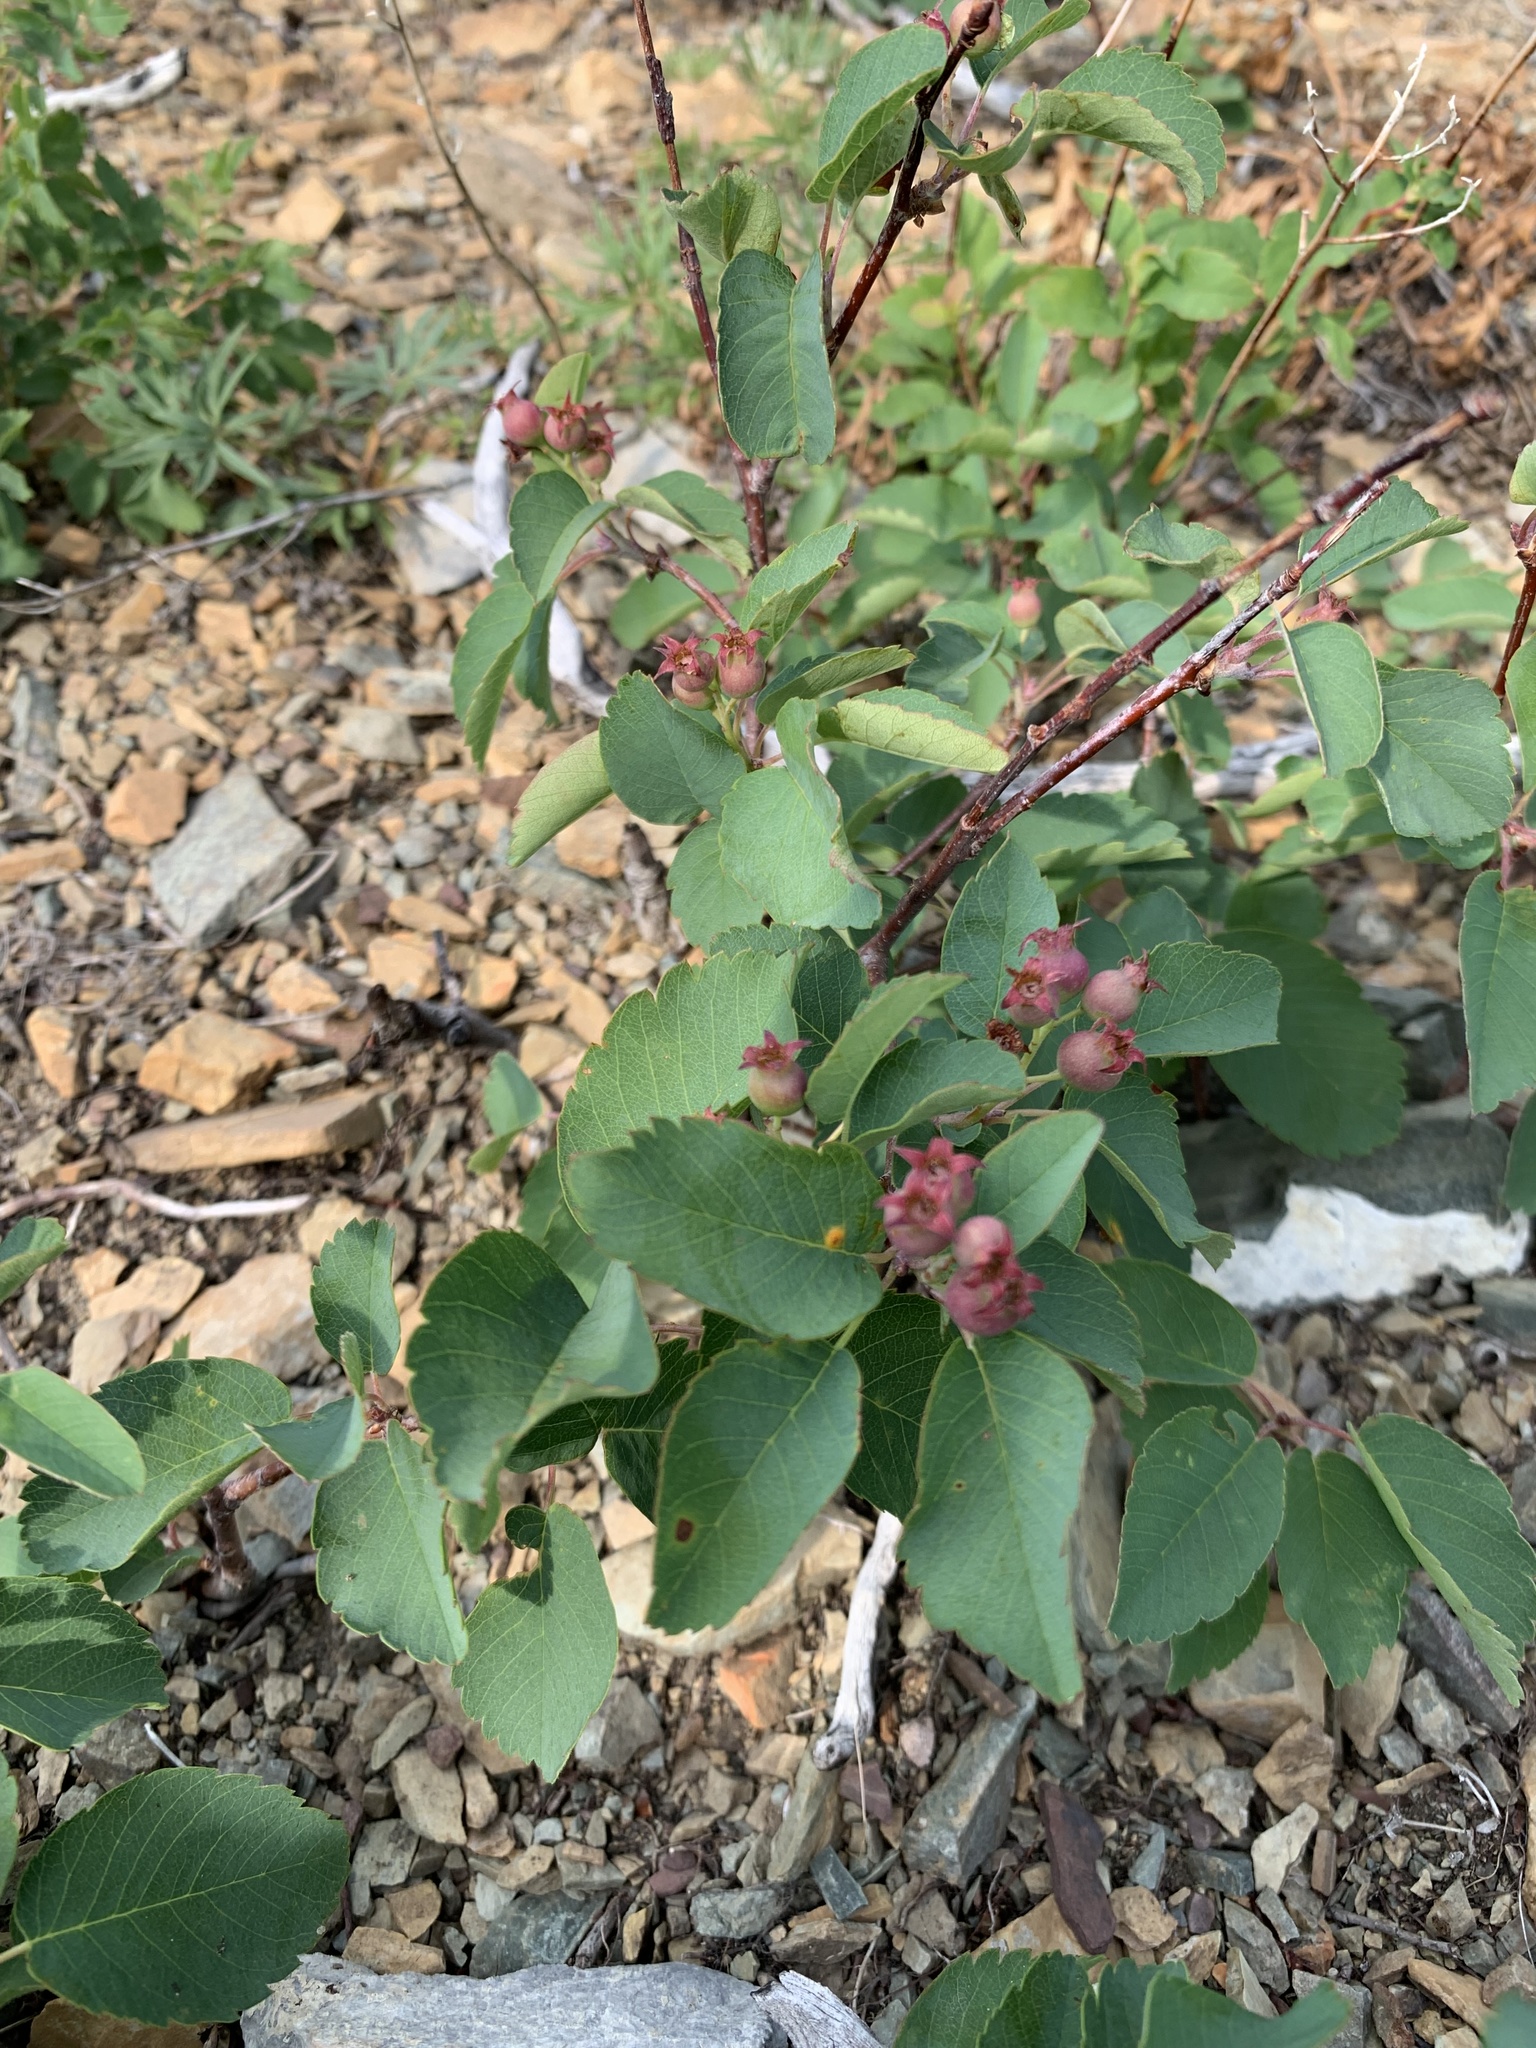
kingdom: Plantae
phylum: Tracheophyta
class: Magnoliopsida
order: Rosales
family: Rosaceae
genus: Amelanchier
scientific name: Amelanchier alnifolia
